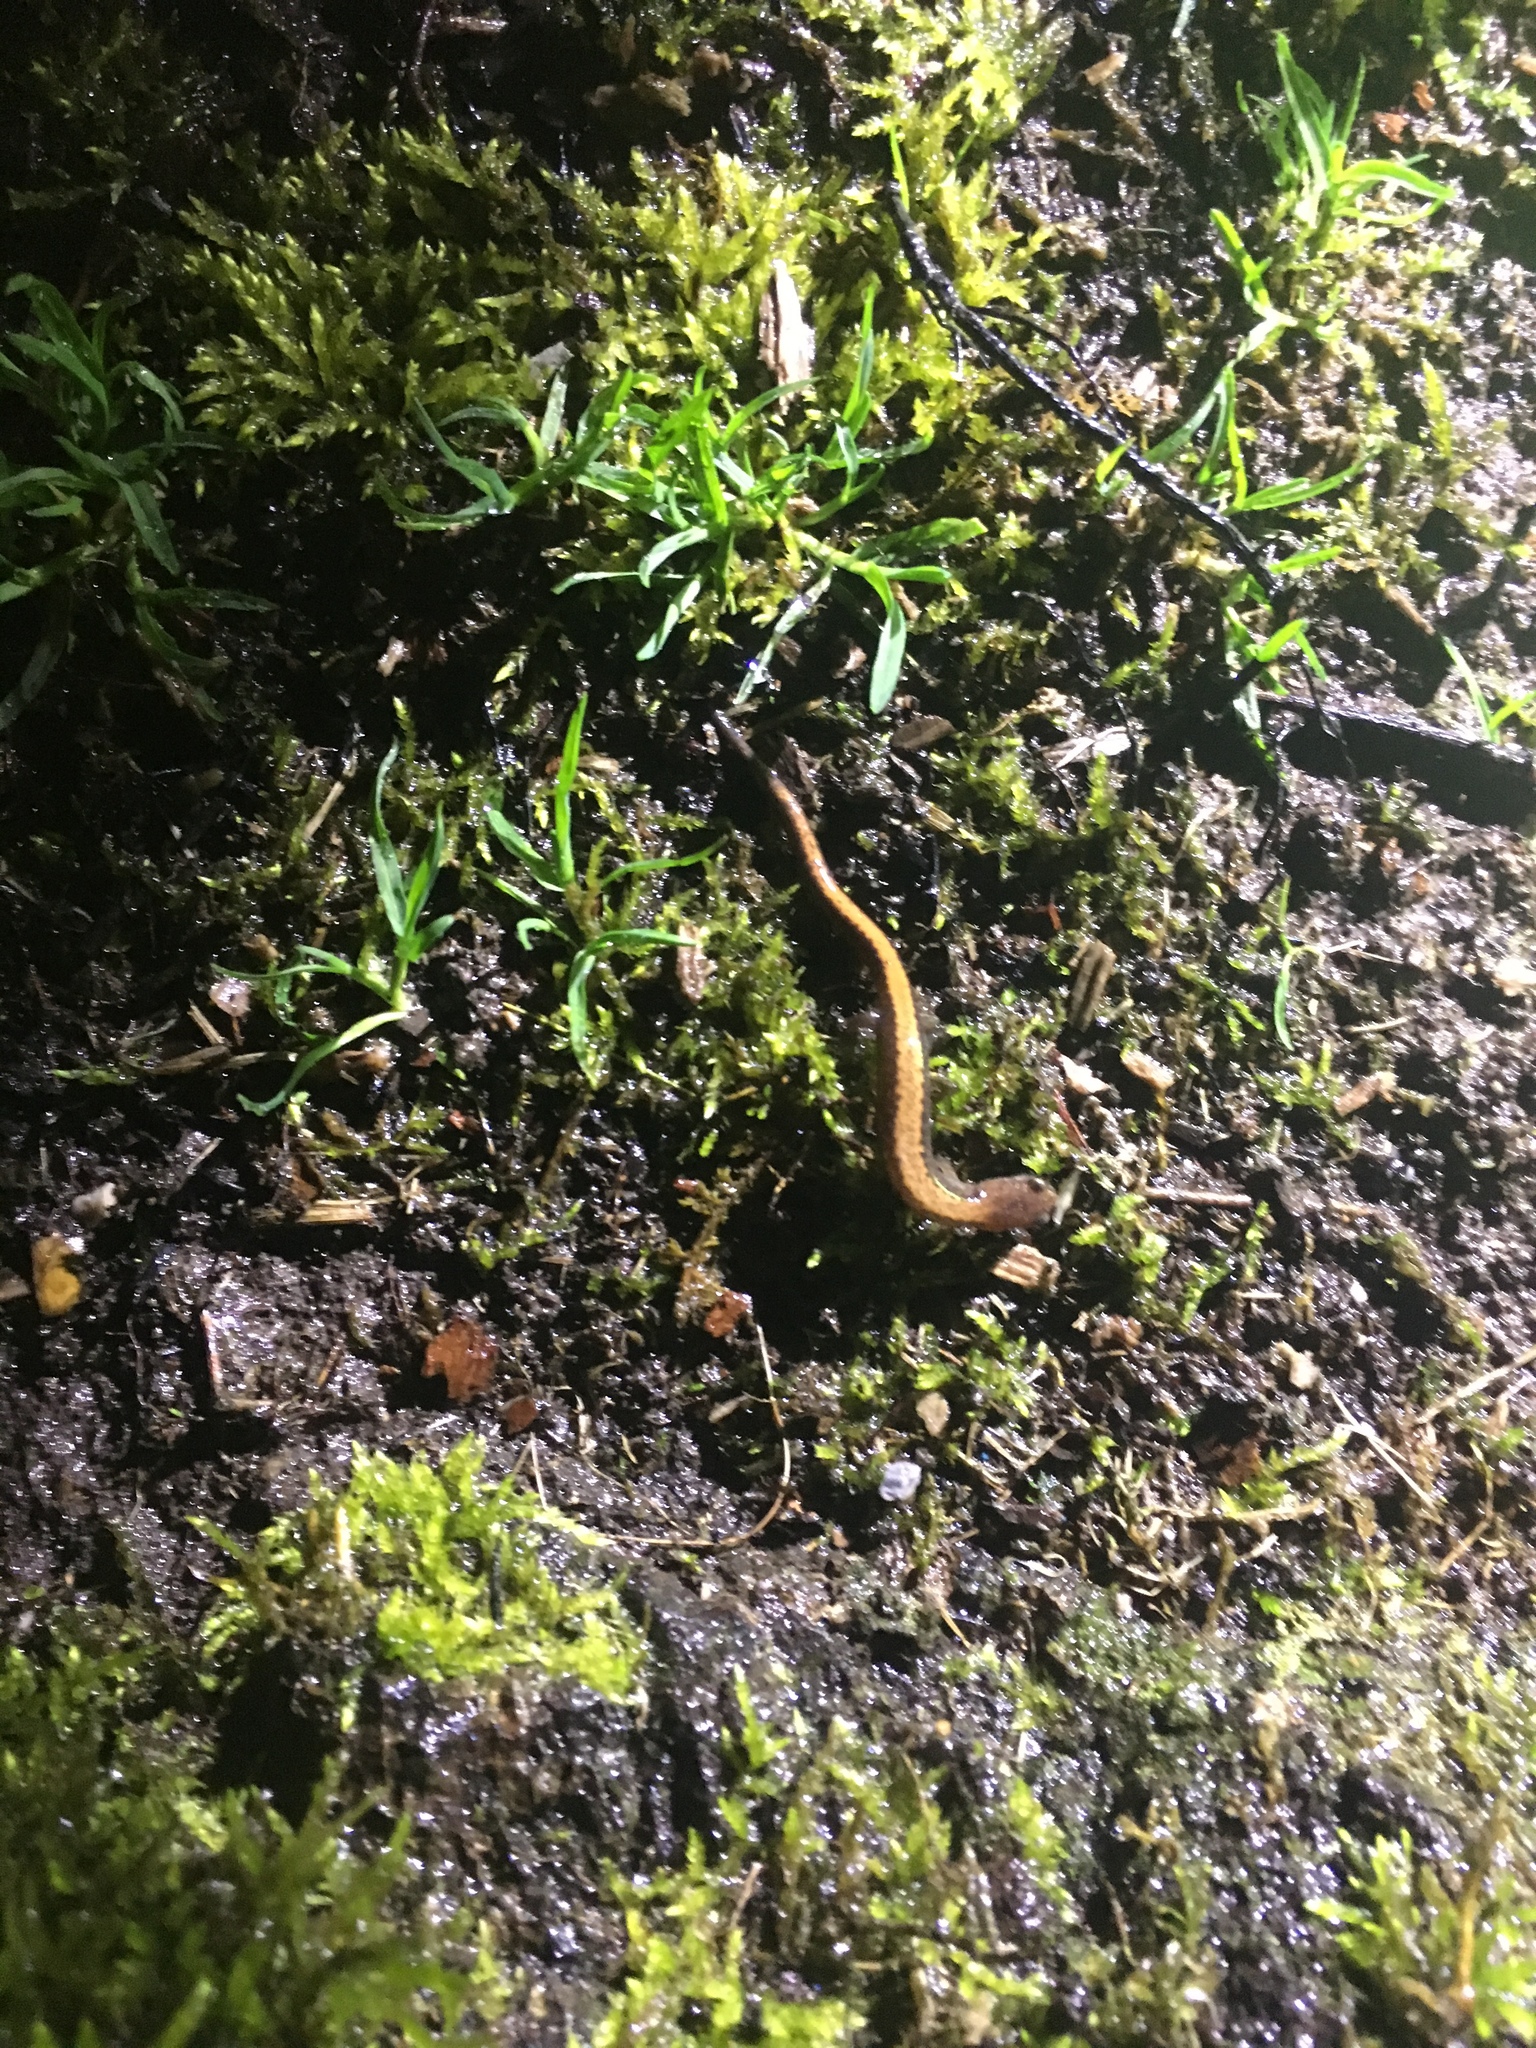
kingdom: Animalia
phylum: Chordata
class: Amphibia
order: Caudata
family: Plethodontidae
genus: Plethodon
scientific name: Plethodon cinereus
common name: Redback salamander
